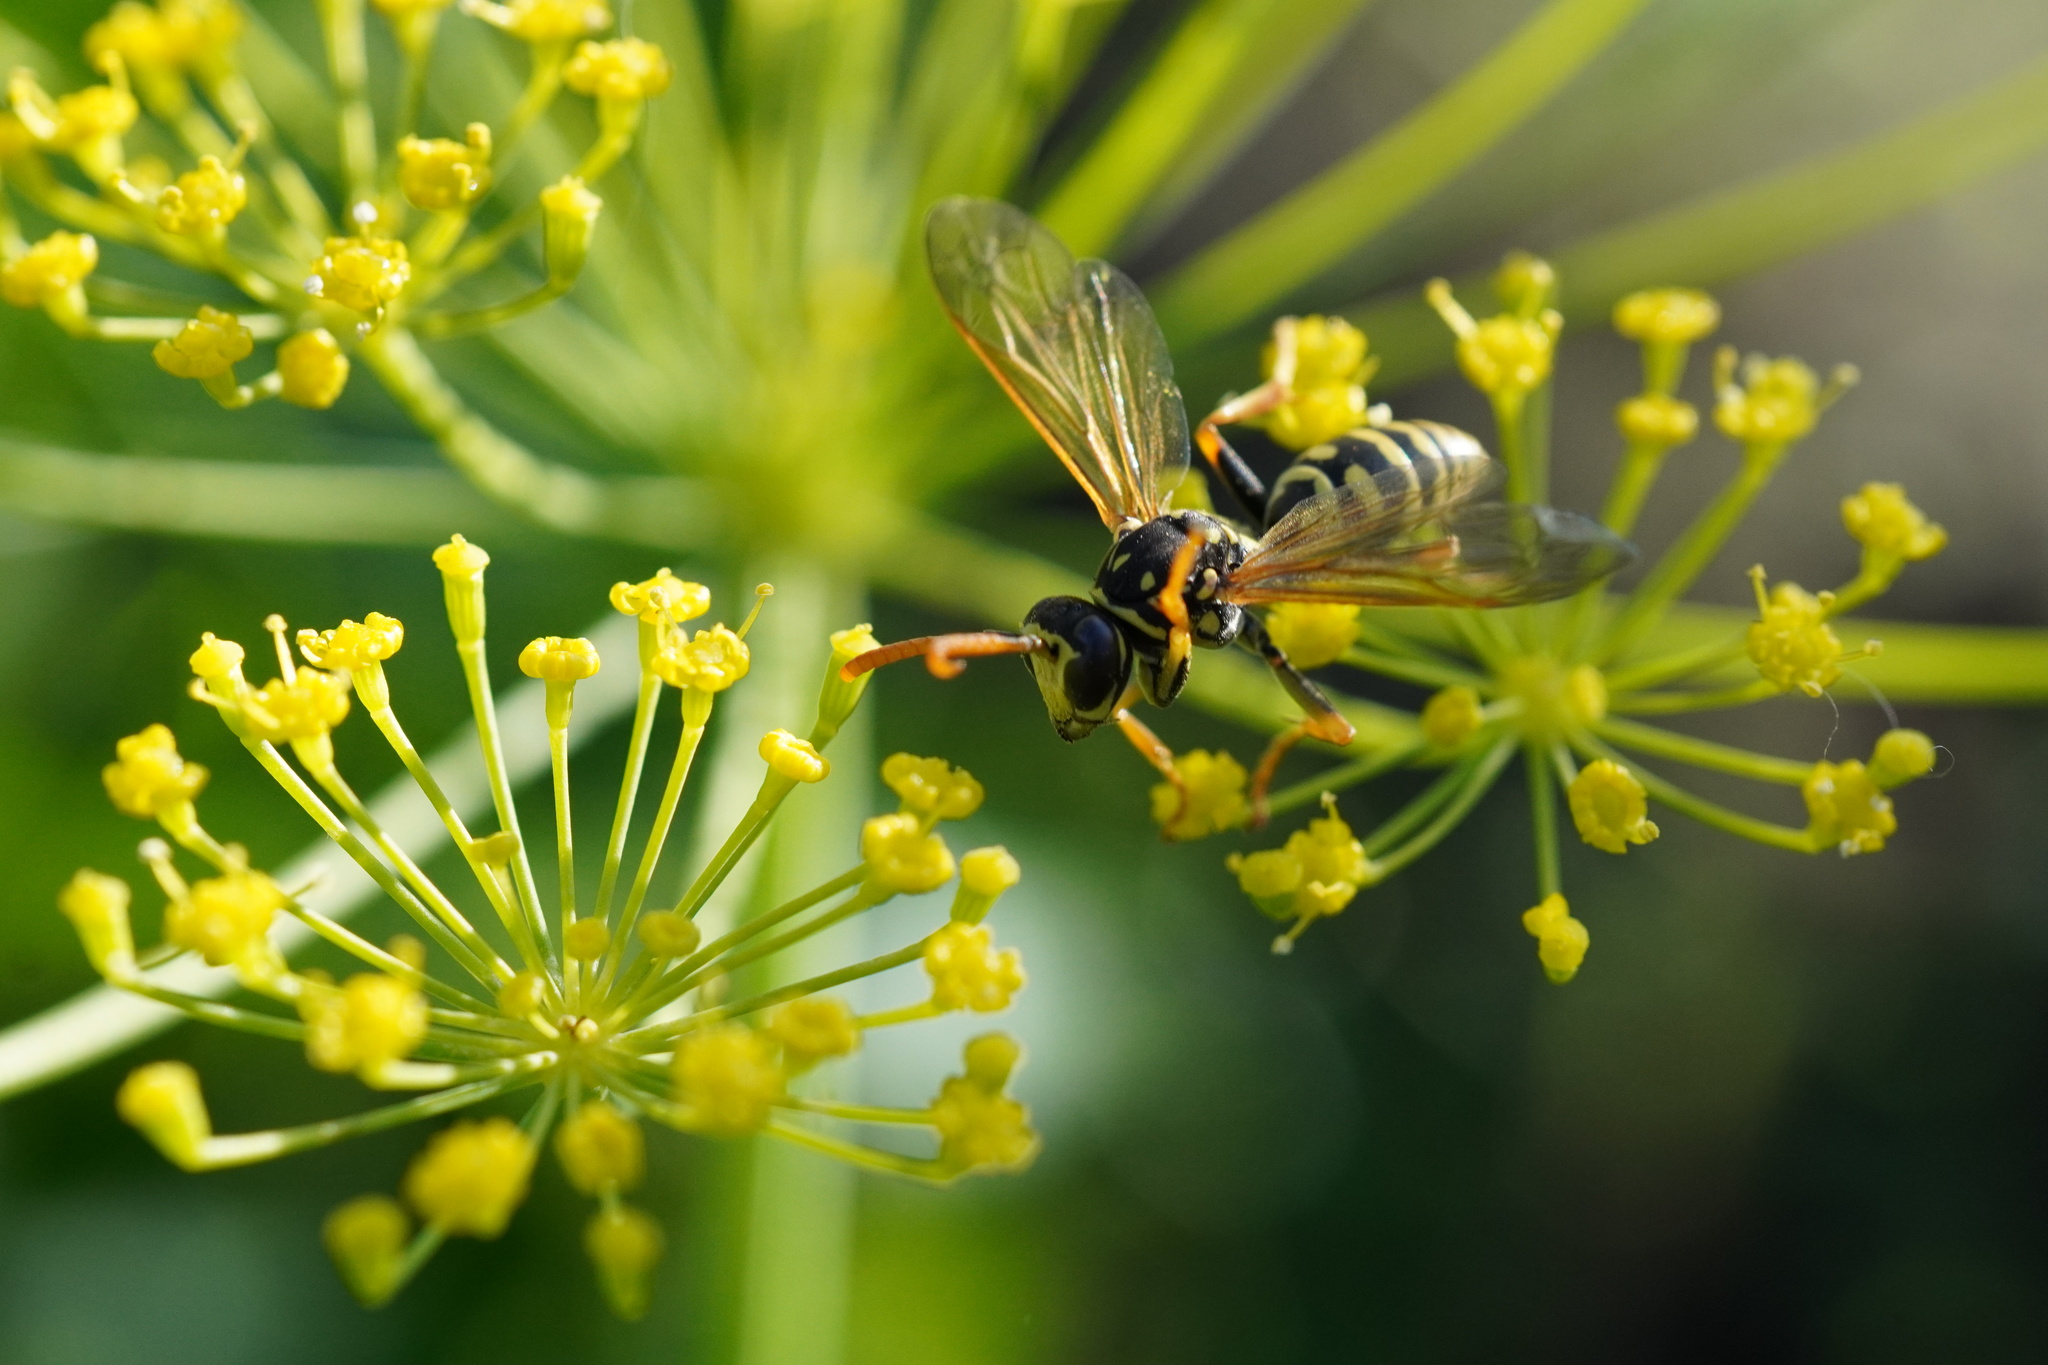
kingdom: Animalia
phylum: Arthropoda
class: Insecta
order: Hymenoptera
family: Eumenidae
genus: Polistes
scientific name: Polistes dominula
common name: Paper wasp
